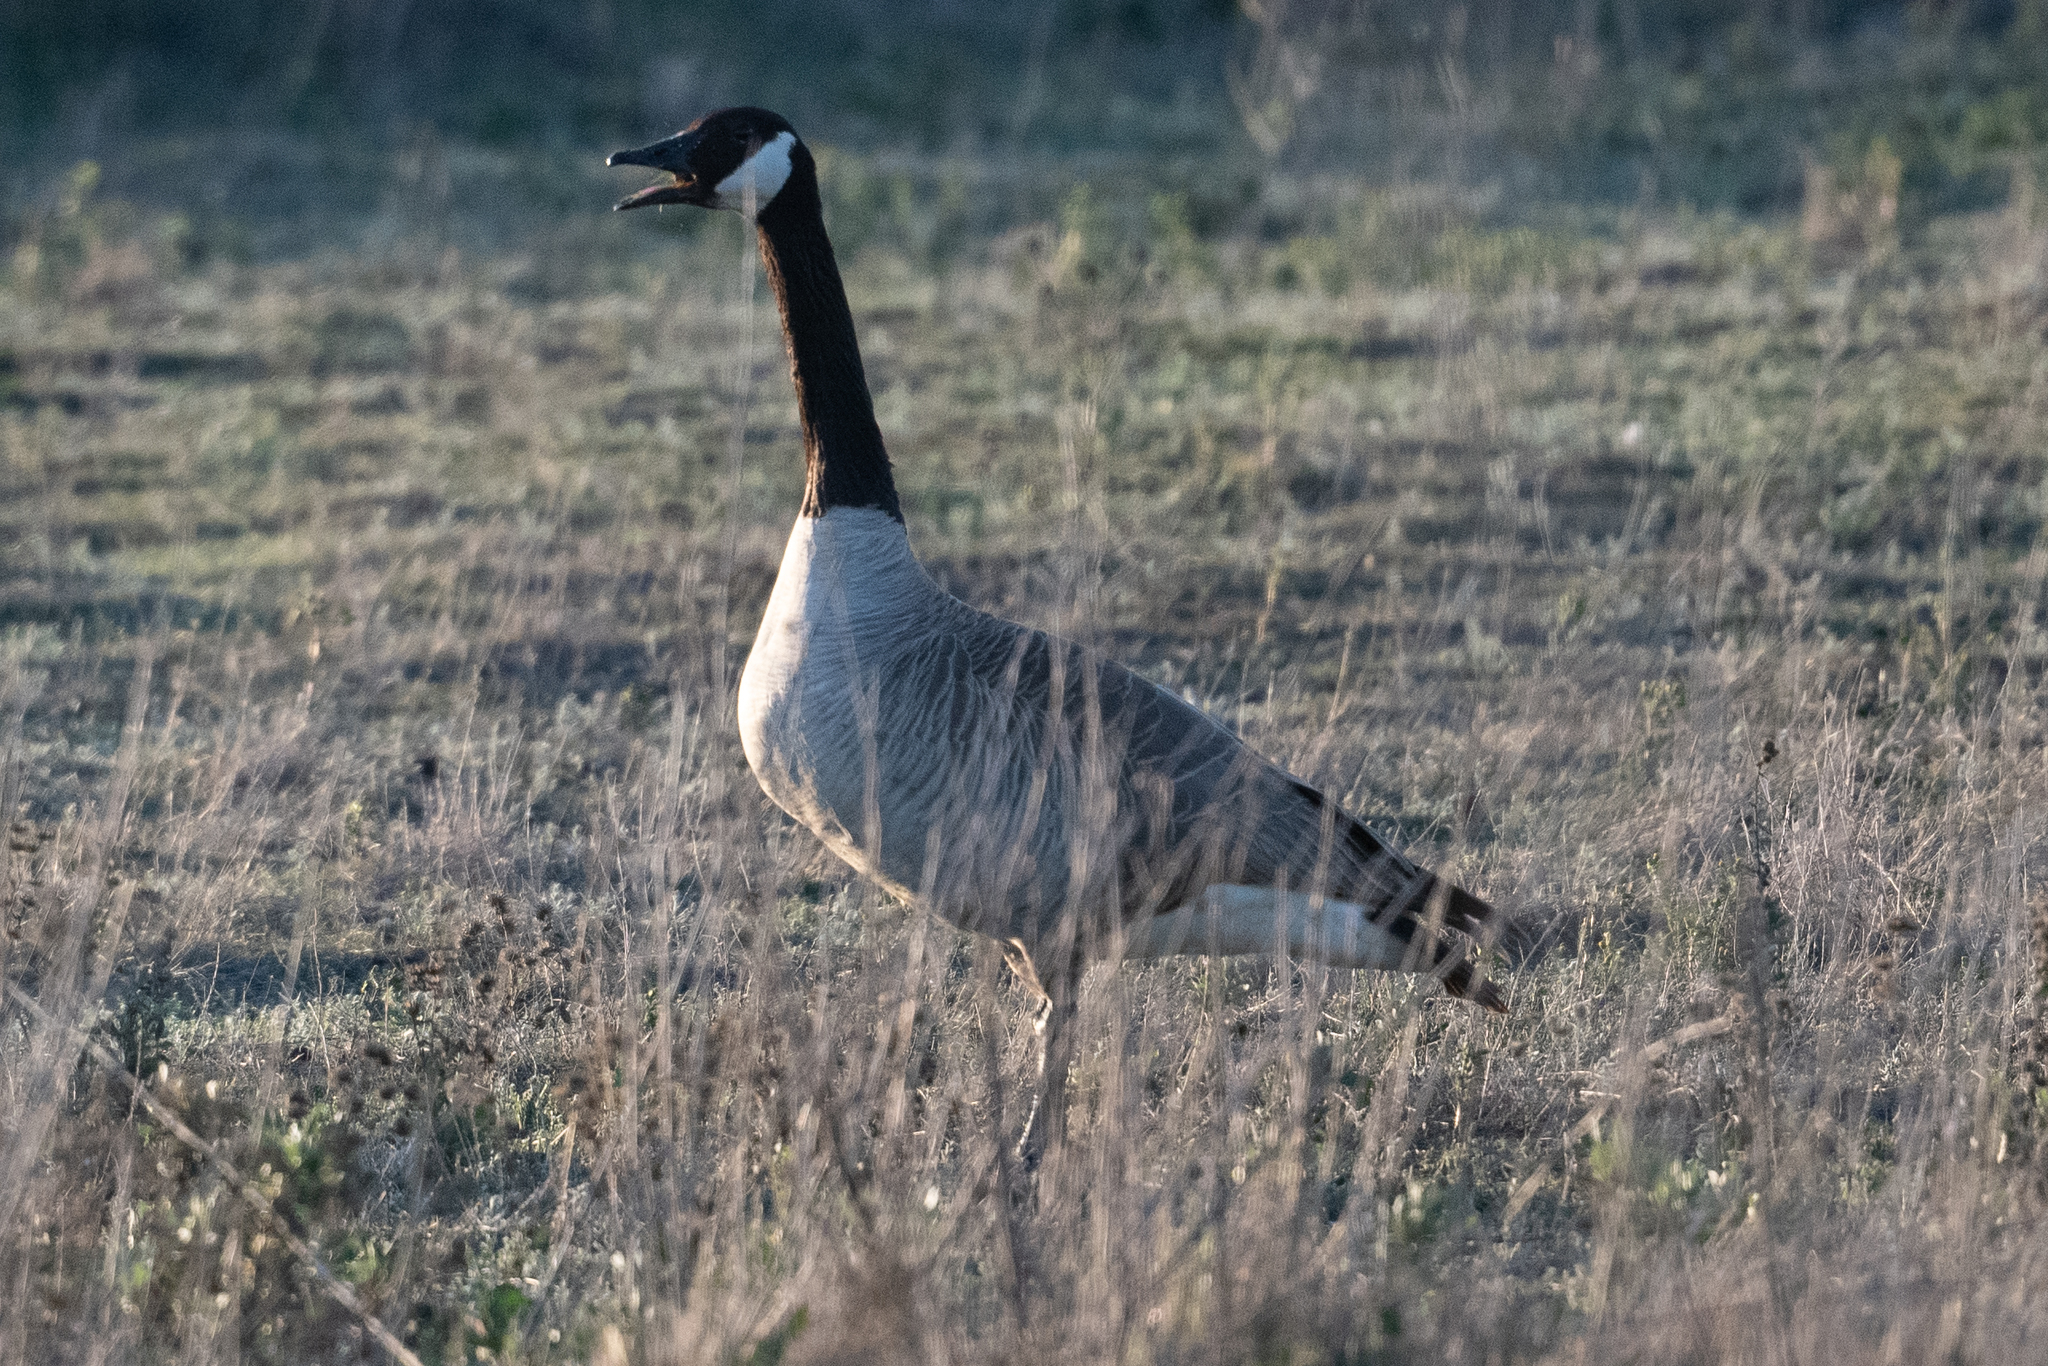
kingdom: Animalia
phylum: Chordata
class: Aves
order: Anseriformes
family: Anatidae
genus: Branta
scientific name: Branta canadensis
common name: Canada goose
